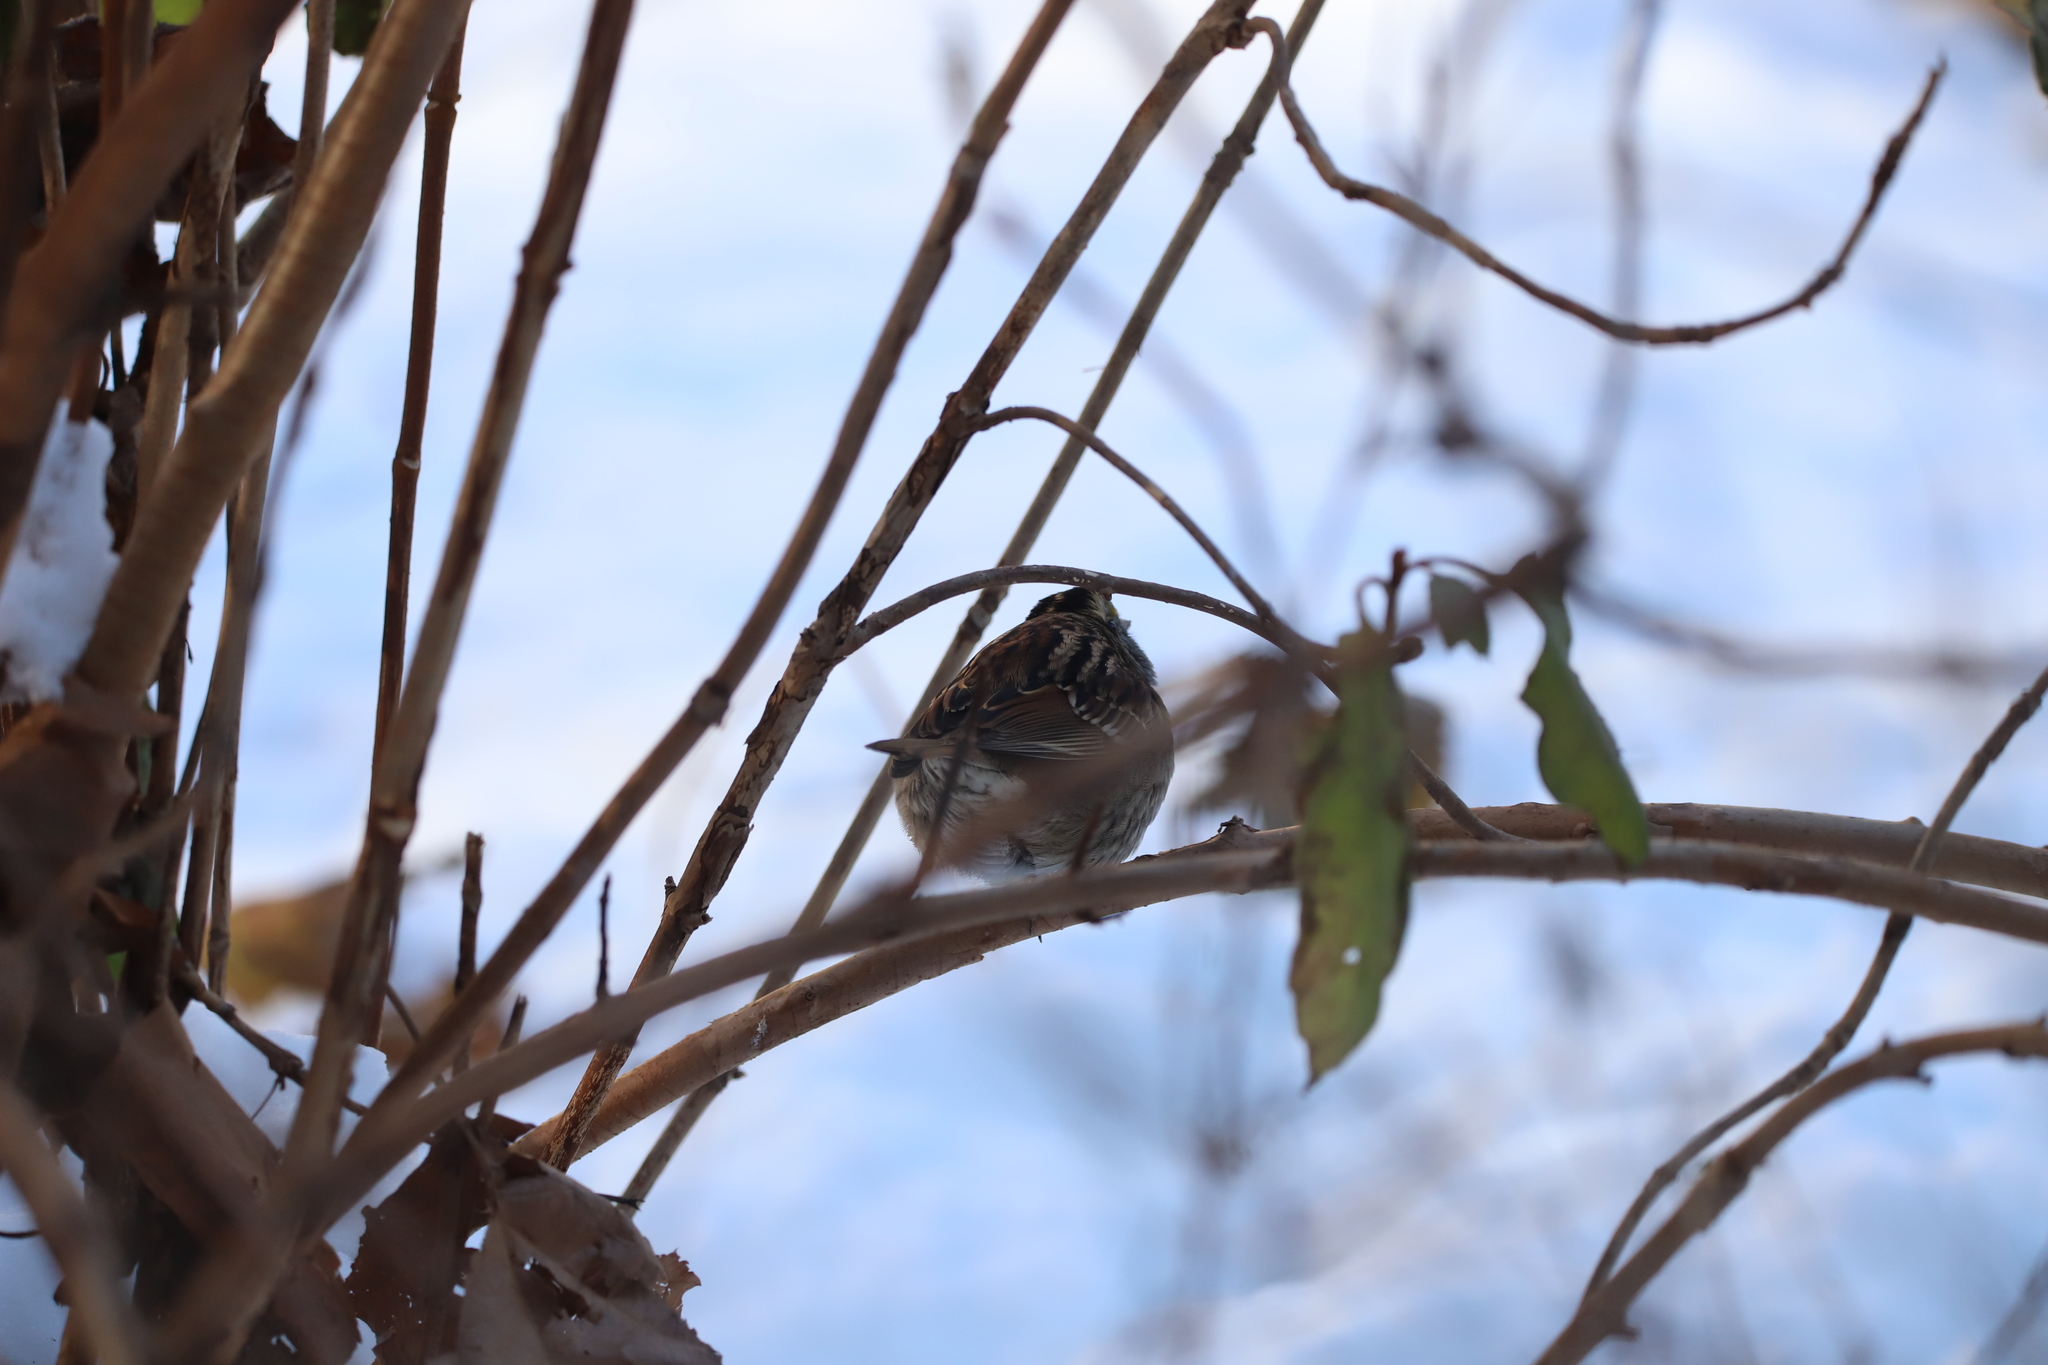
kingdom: Animalia
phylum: Chordata
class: Aves
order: Passeriformes
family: Passeridae
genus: Passer
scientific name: Passer domesticus
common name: House sparrow
